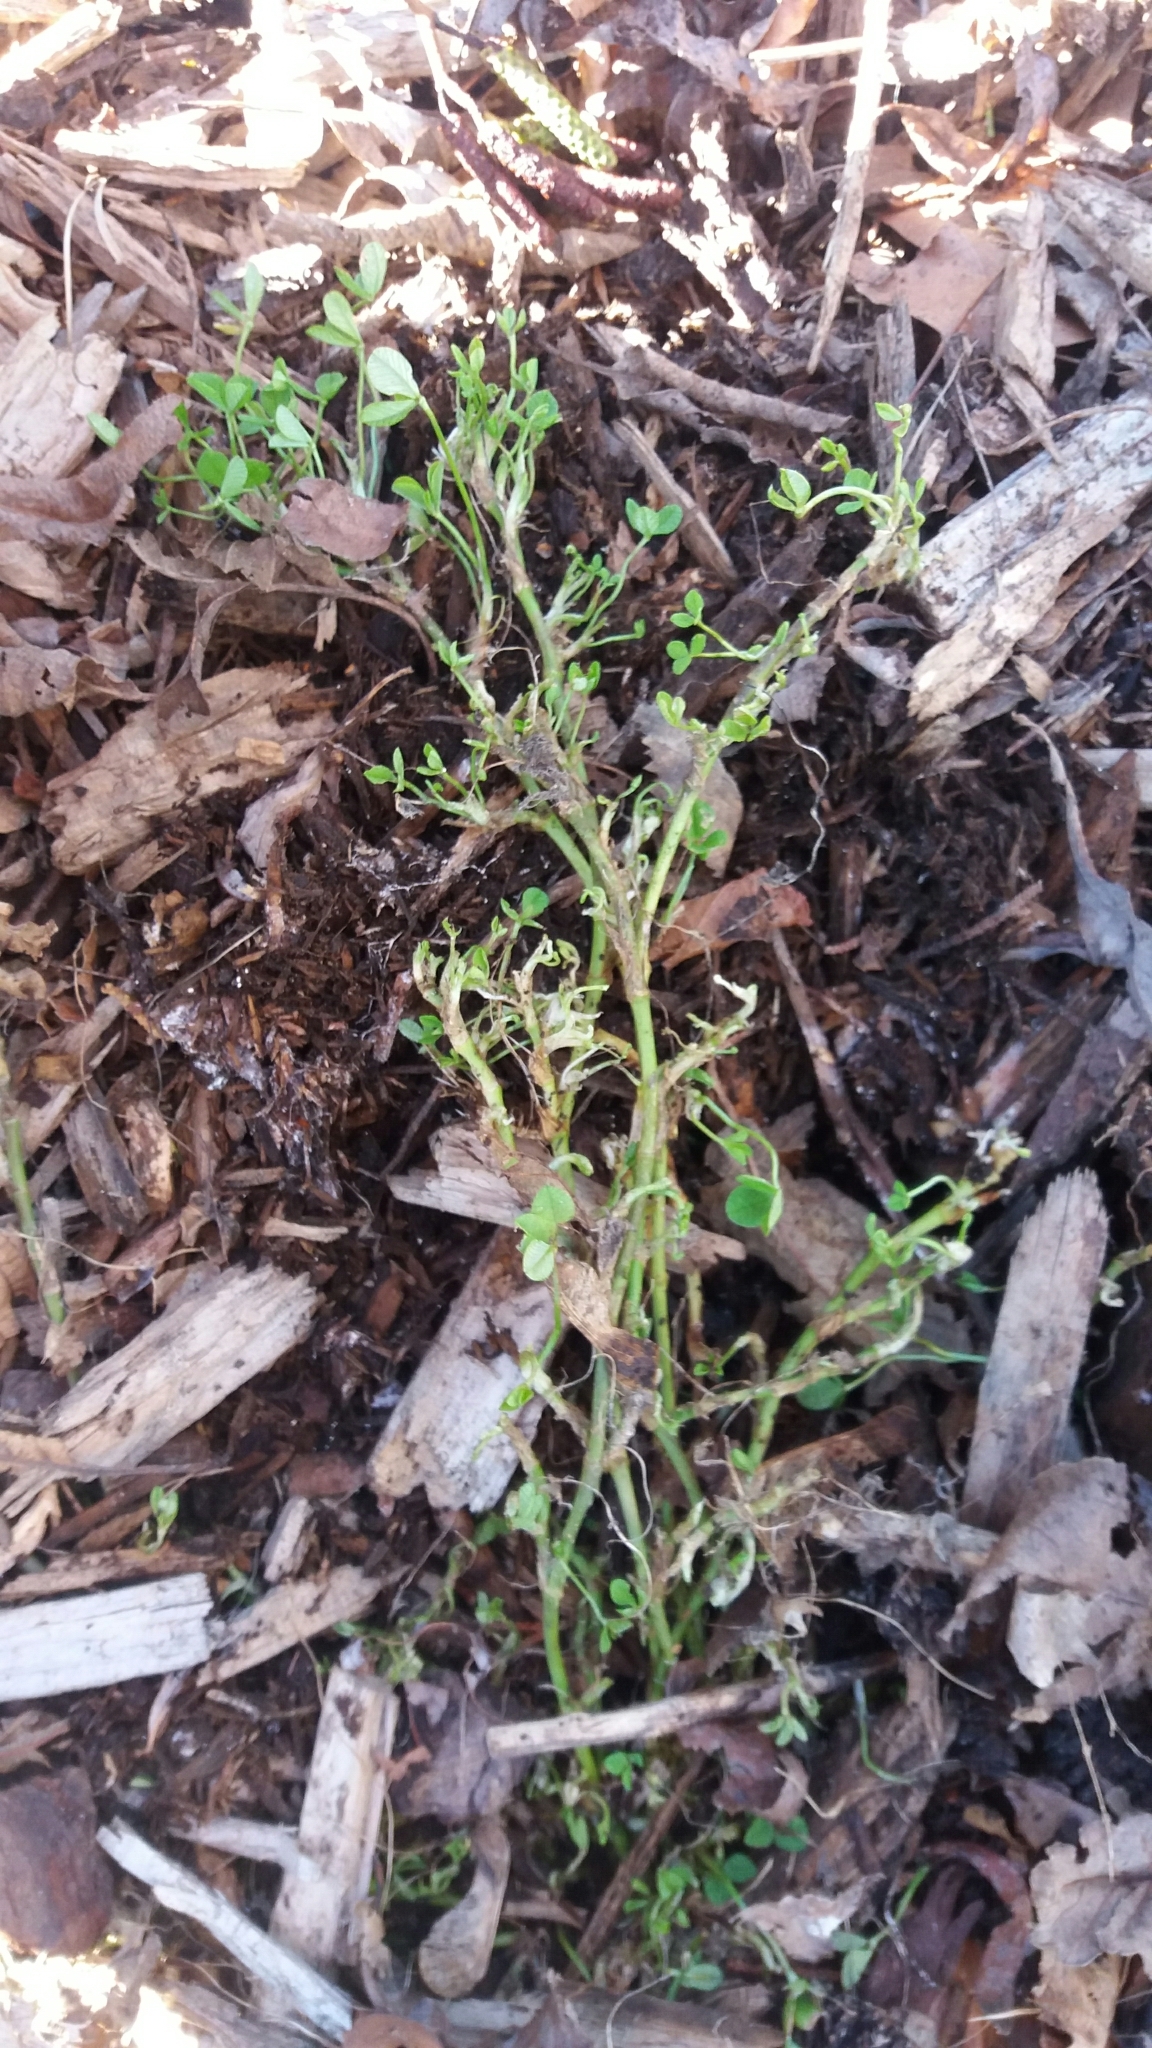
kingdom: Plantae
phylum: Tracheophyta
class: Magnoliopsida
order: Fabales
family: Fabaceae
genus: Trifolium
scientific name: Trifolium subterraneum
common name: Subterranean clover
